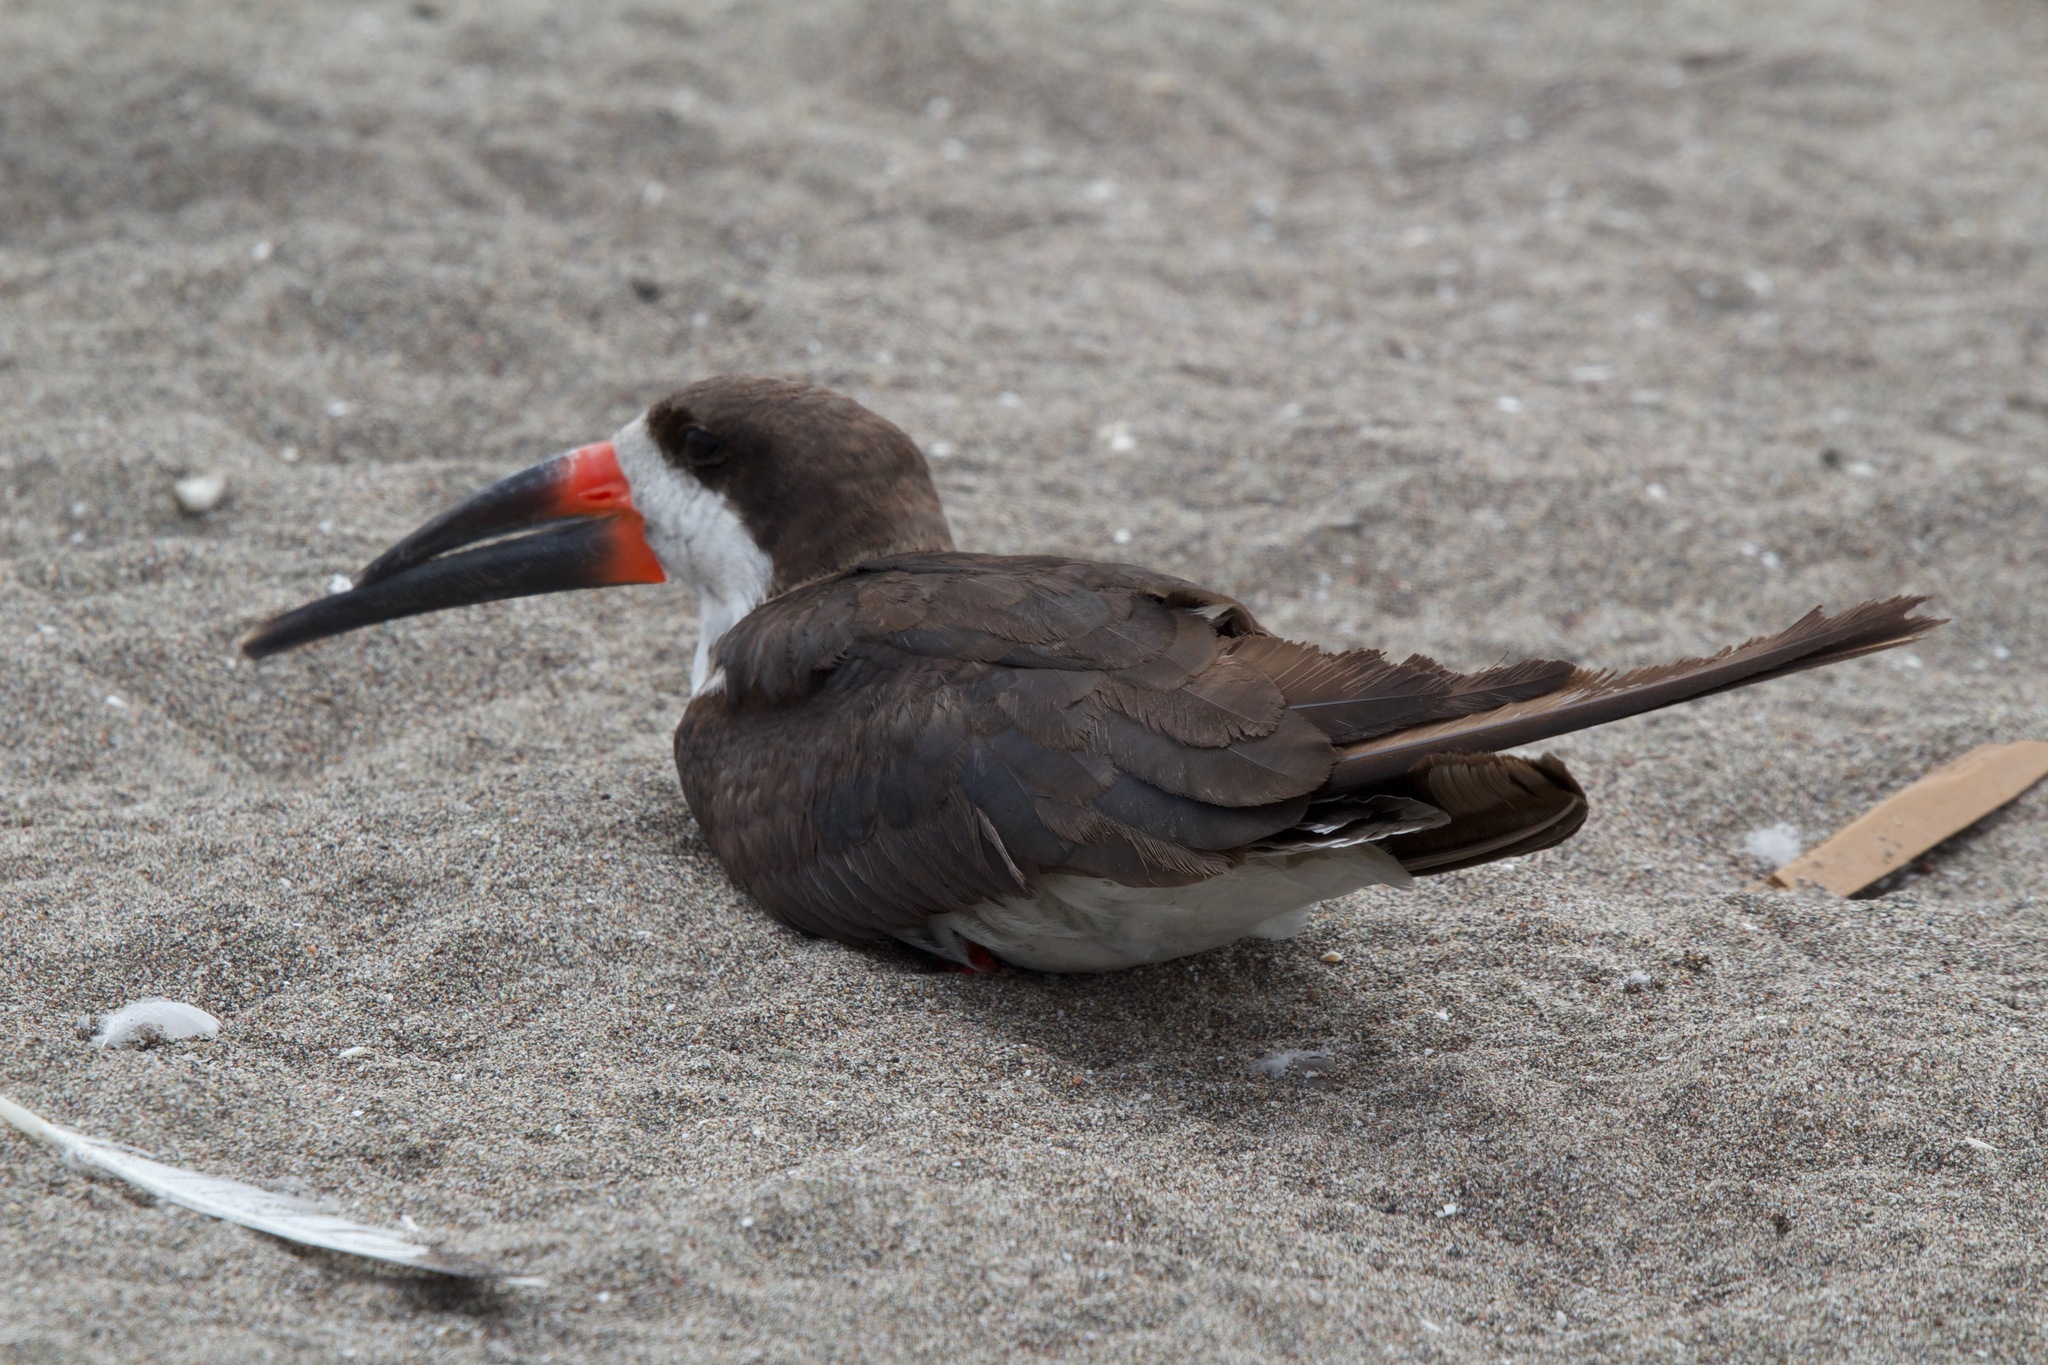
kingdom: Animalia
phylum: Chordata
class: Aves
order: Charadriiformes
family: Laridae
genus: Rynchops
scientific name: Rynchops niger
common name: Black skimmer
